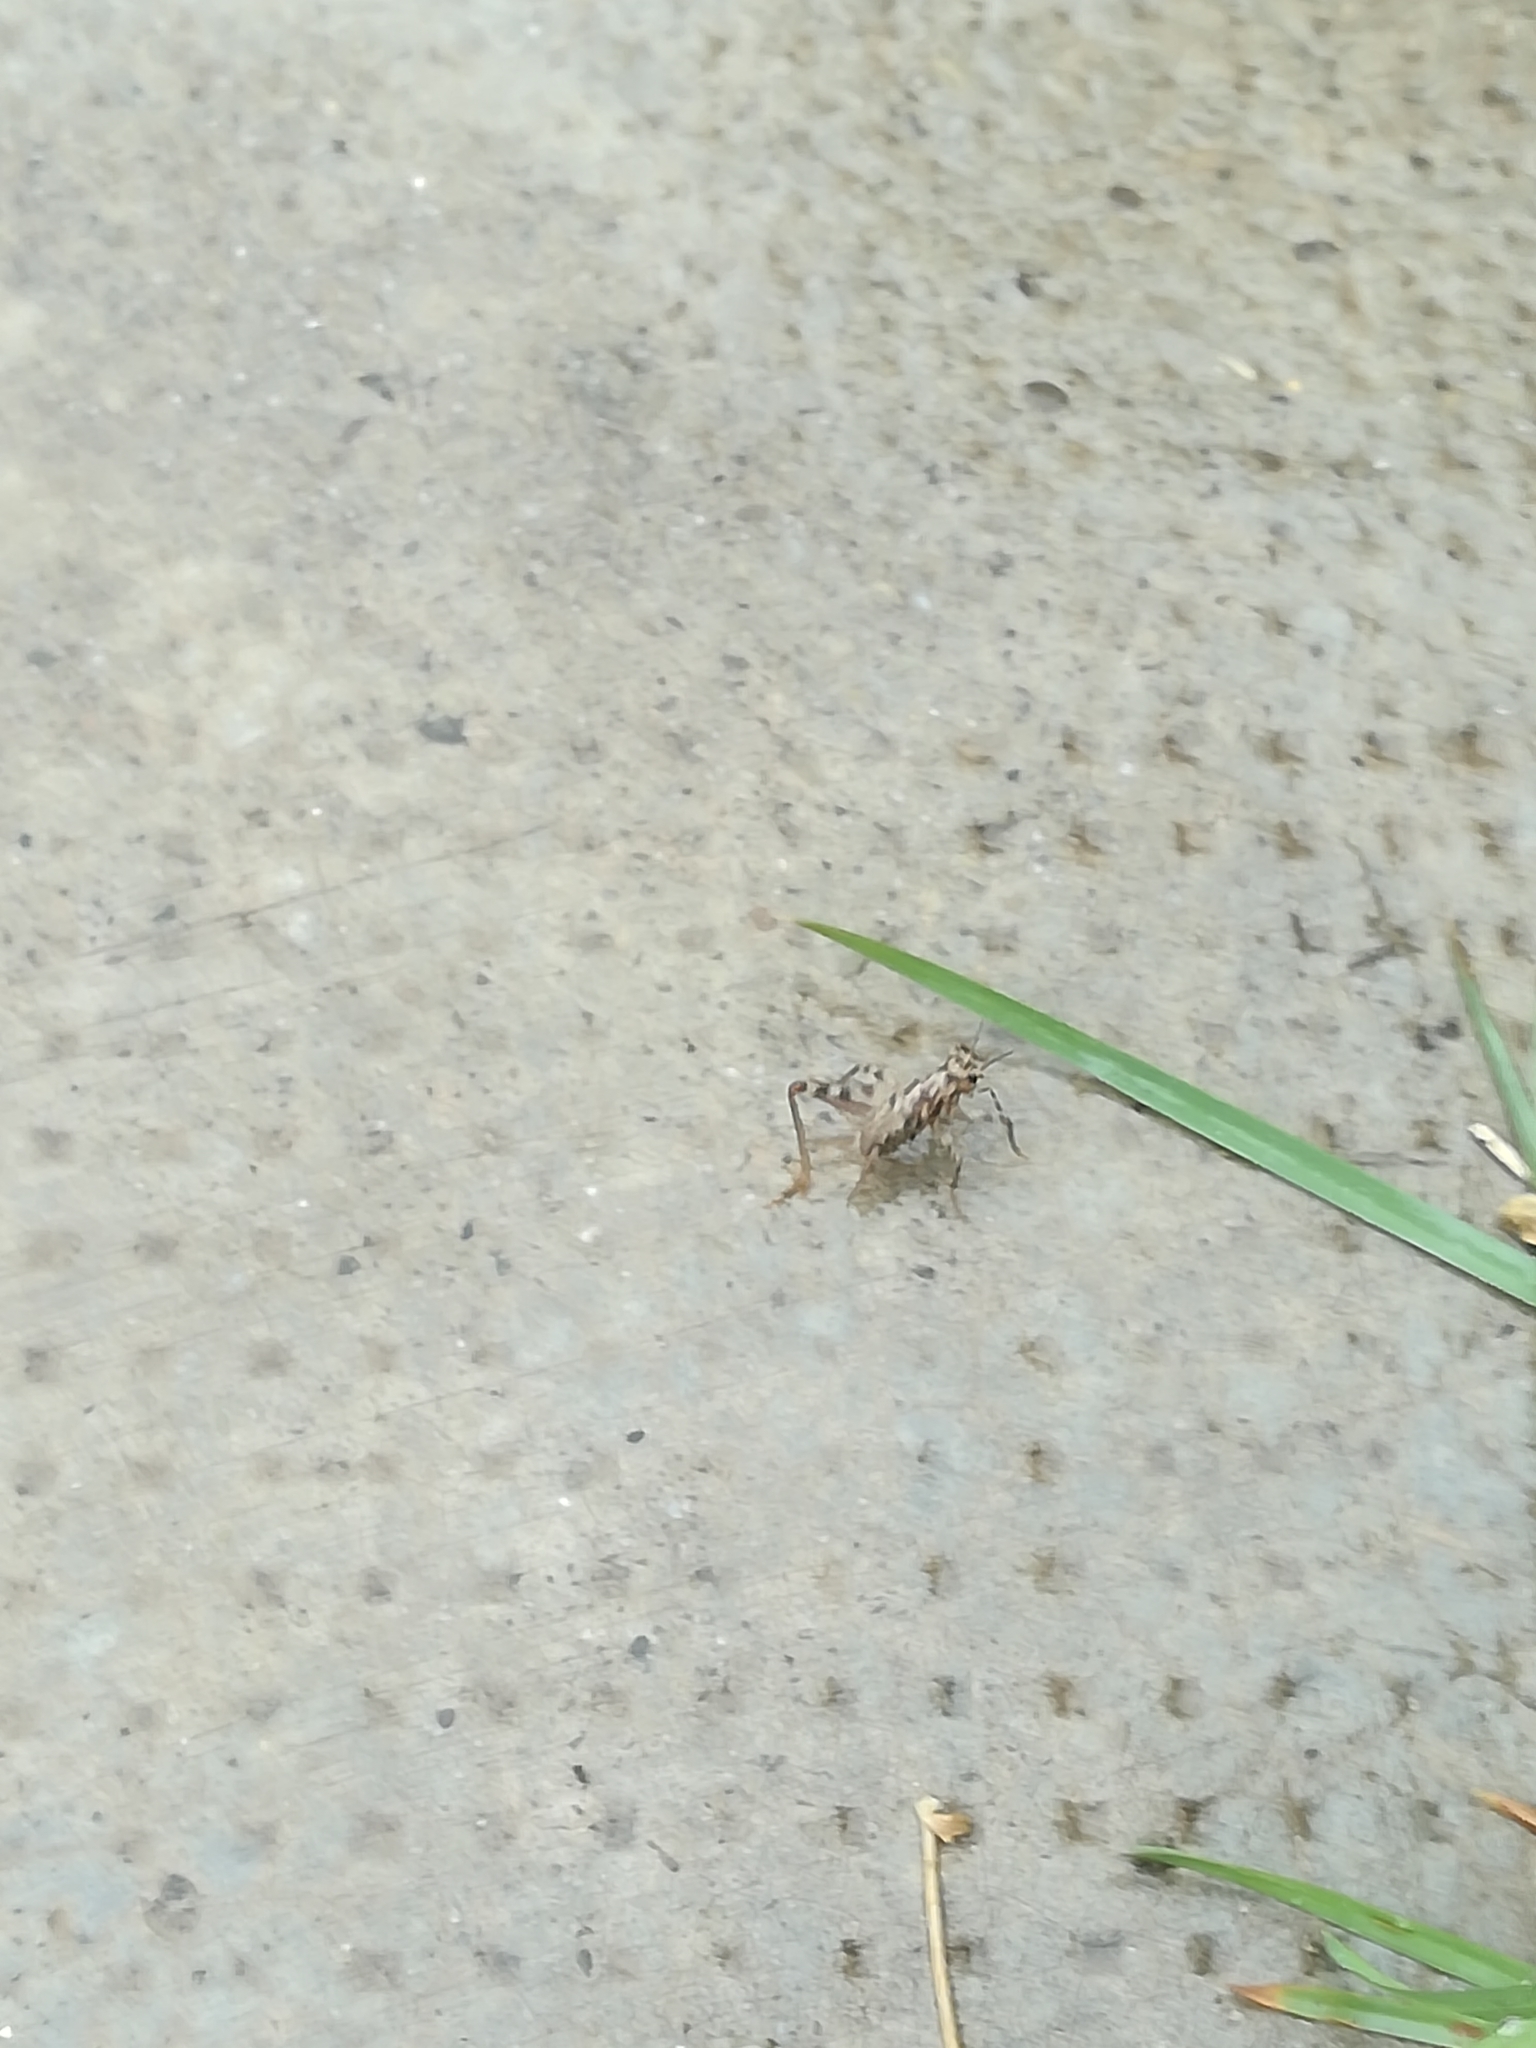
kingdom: Animalia
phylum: Arthropoda
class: Insecta
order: Orthoptera
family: Gryllidae
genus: Gryllomorpha
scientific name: Gryllomorpha dalmatina
